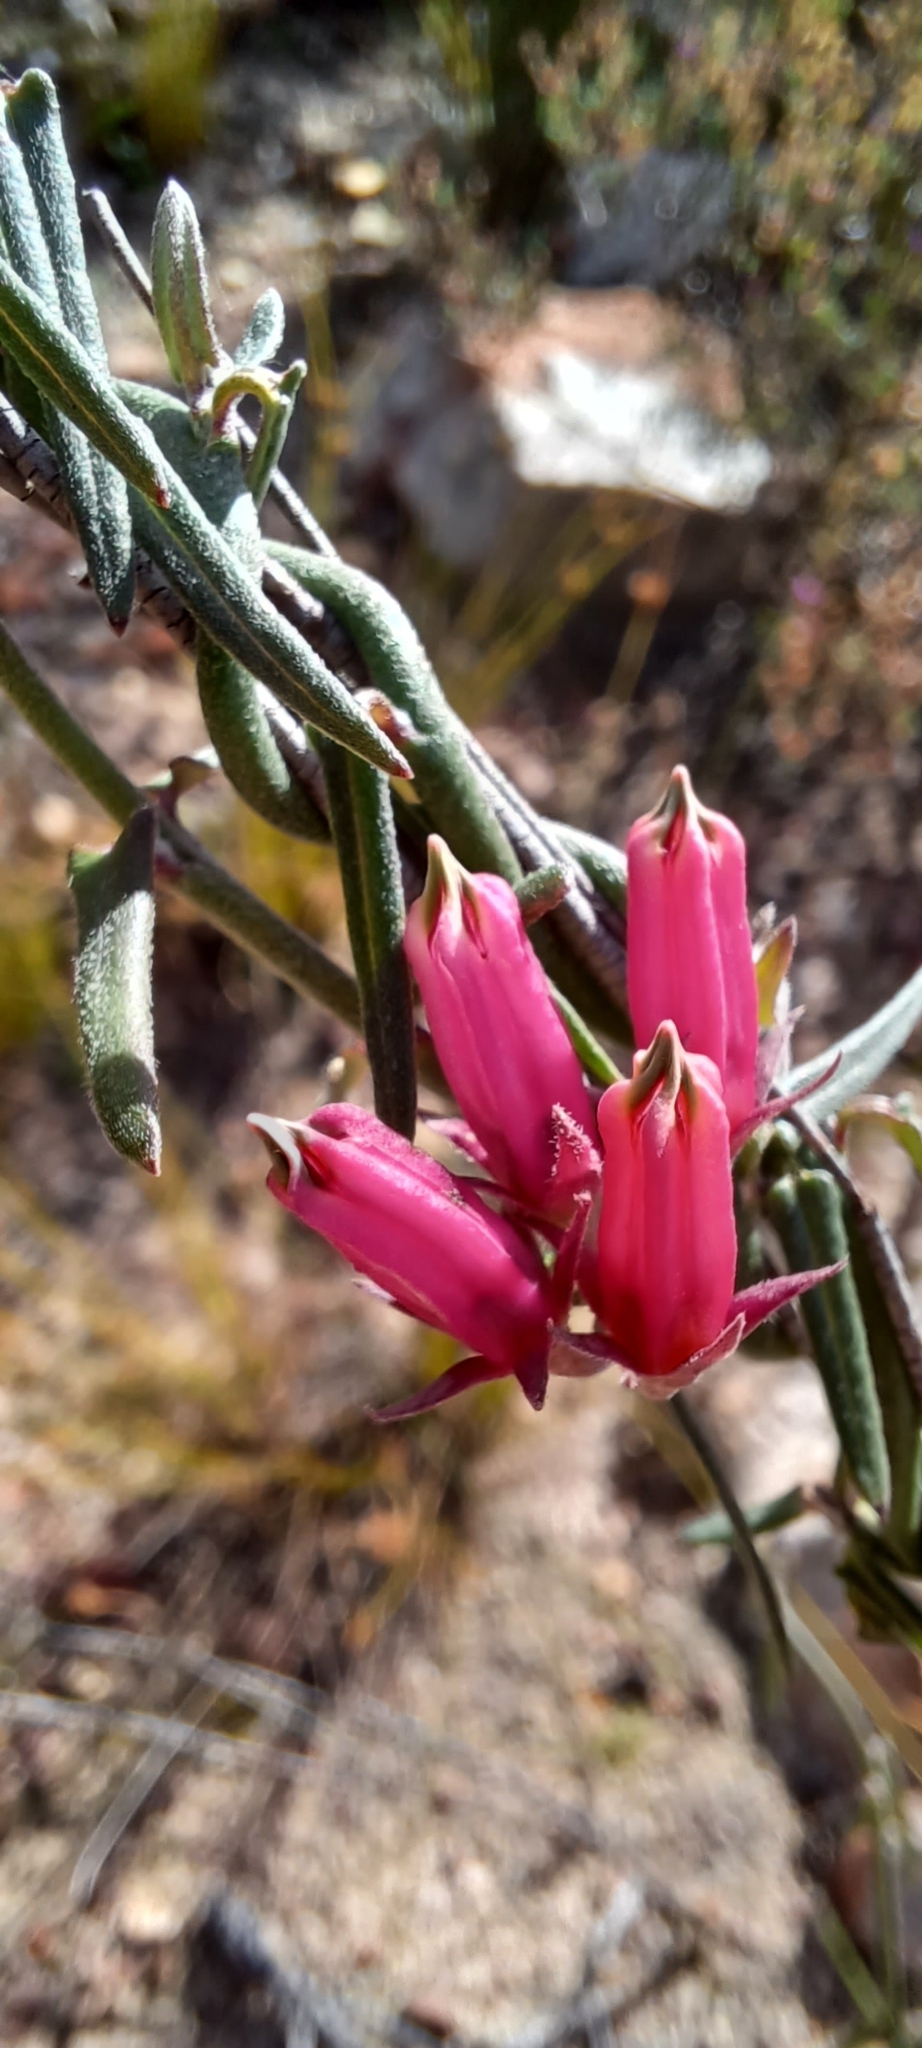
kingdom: Plantae
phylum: Tracheophyta
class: Magnoliopsida
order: Gentianales
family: Apocynaceae
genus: Microloma
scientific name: Microloma sagittatum
